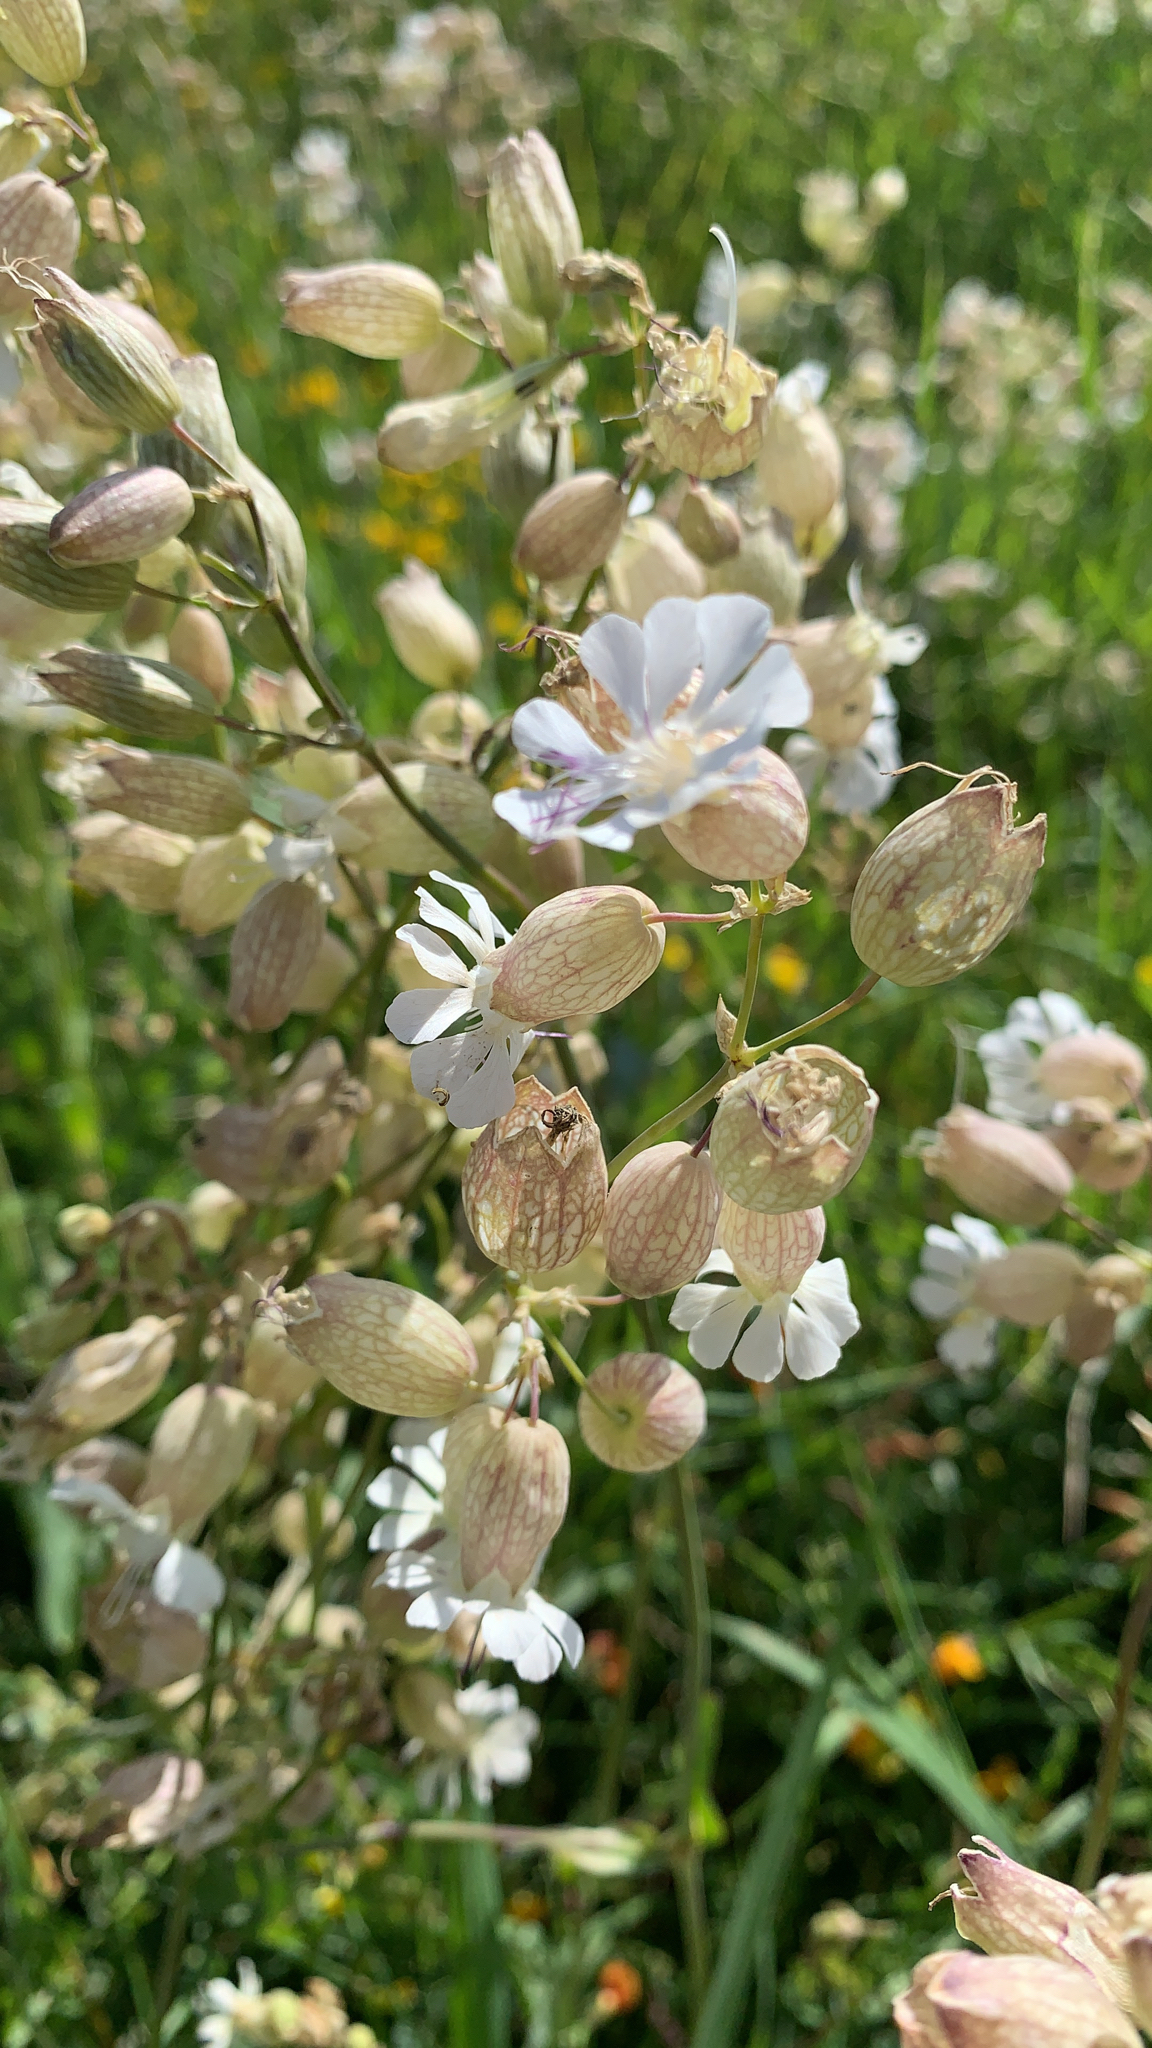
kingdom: Plantae
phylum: Tracheophyta
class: Magnoliopsida
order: Caryophyllales
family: Caryophyllaceae
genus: Silene
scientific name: Silene vulgaris
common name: Bladder campion
